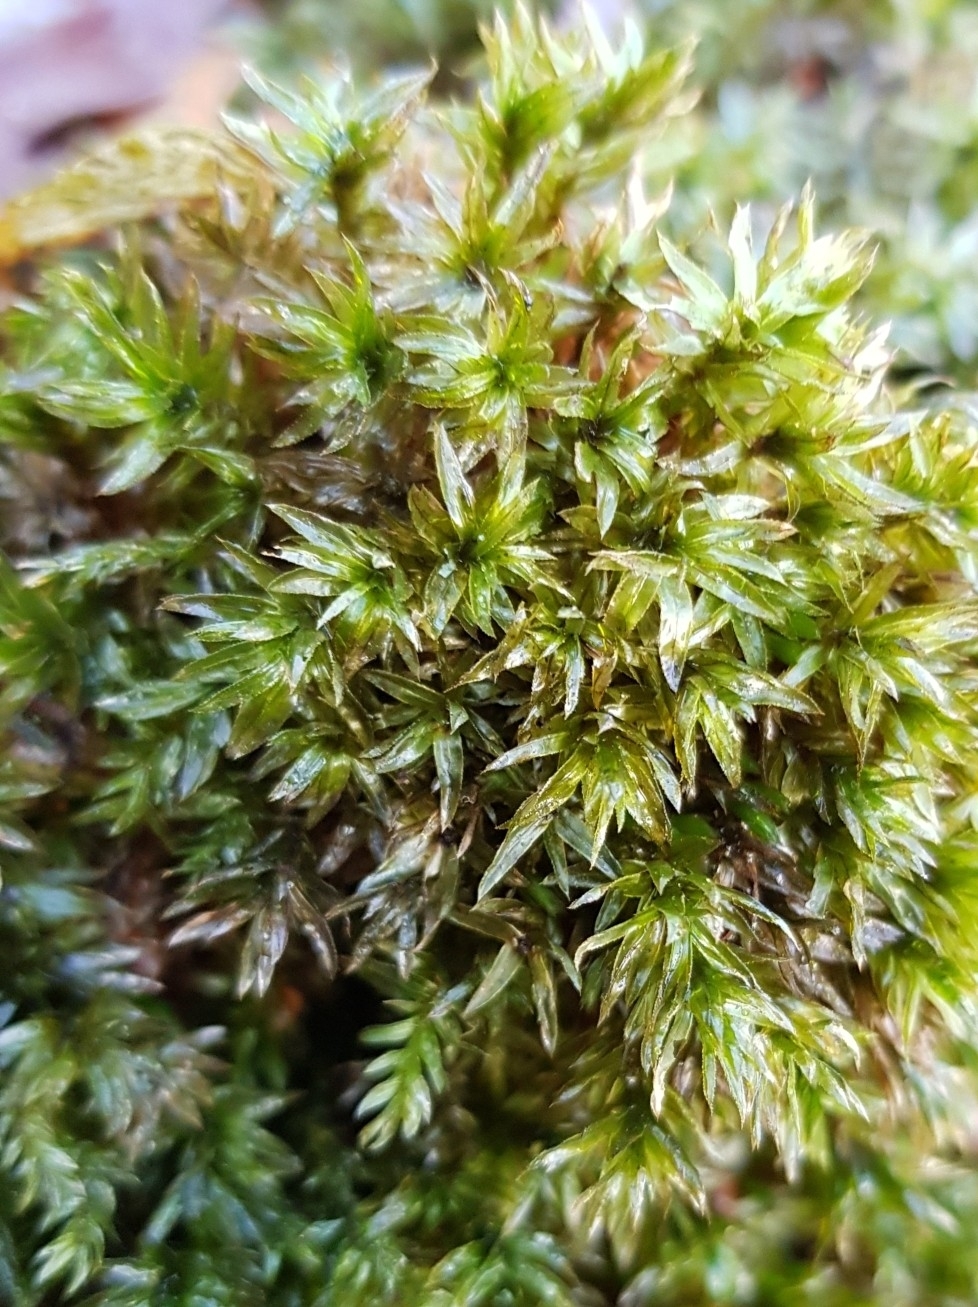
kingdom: Plantae
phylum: Bryophyta
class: Bryopsida
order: Bryales
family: Mniaceae
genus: Mnium
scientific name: Mnium hornum
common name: Swan's-neck leafy moss
